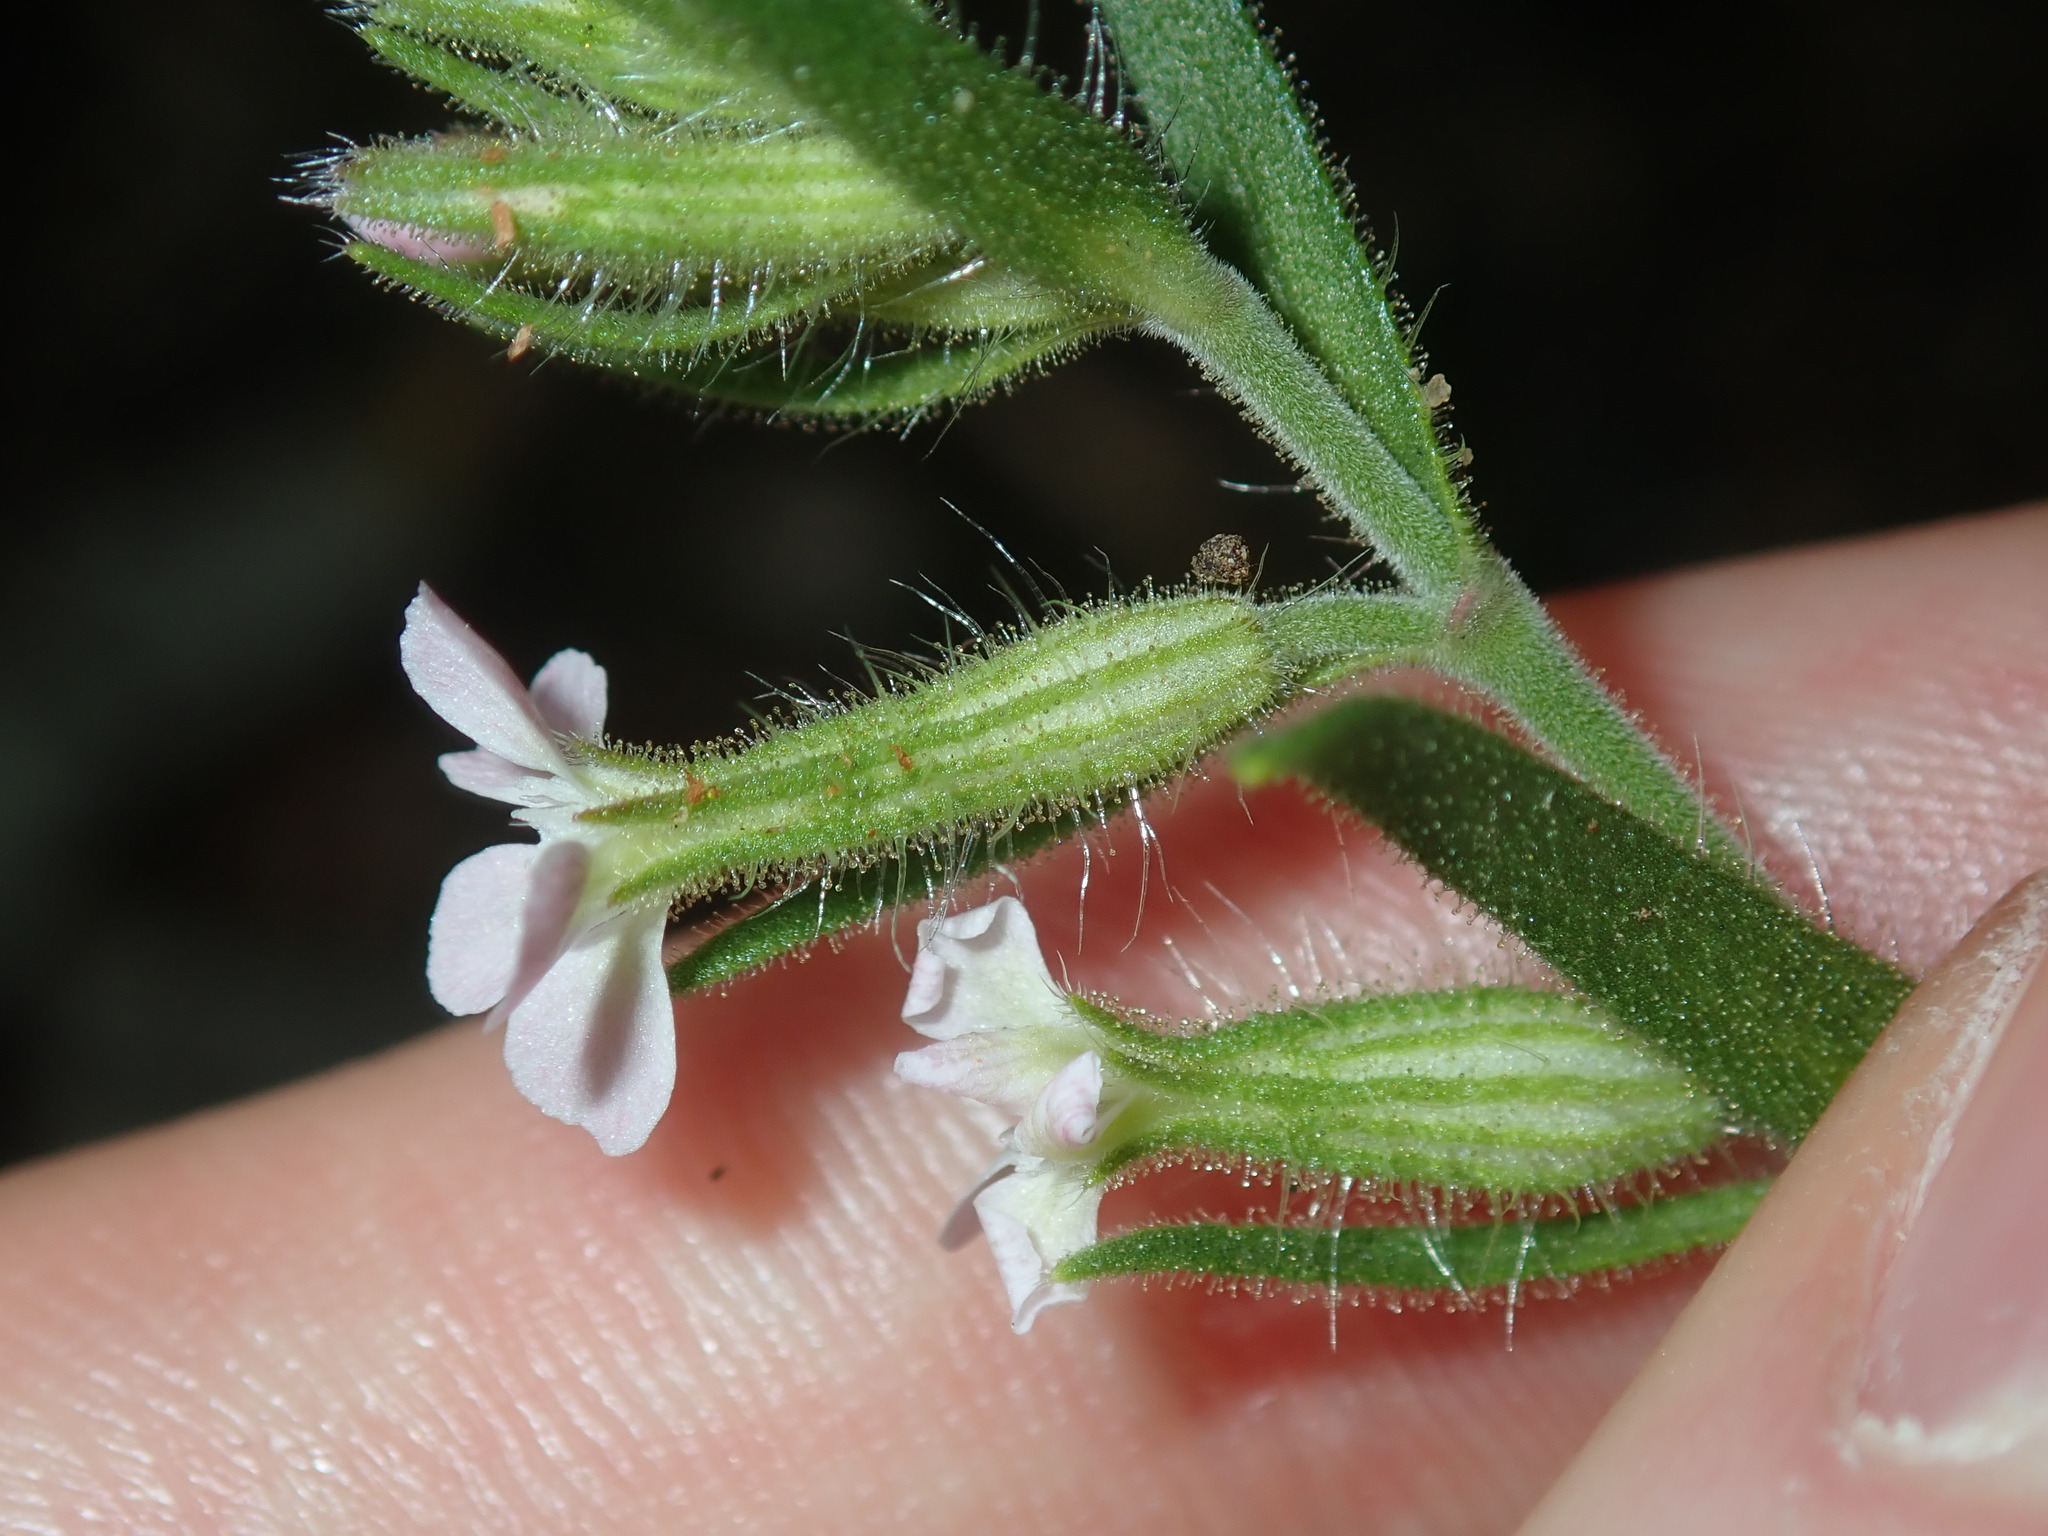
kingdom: Plantae
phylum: Tracheophyta
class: Magnoliopsida
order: Caryophyllales
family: Caryophyllaceae
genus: Silene
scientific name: Silene gallica
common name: Small-flowered catchfly
